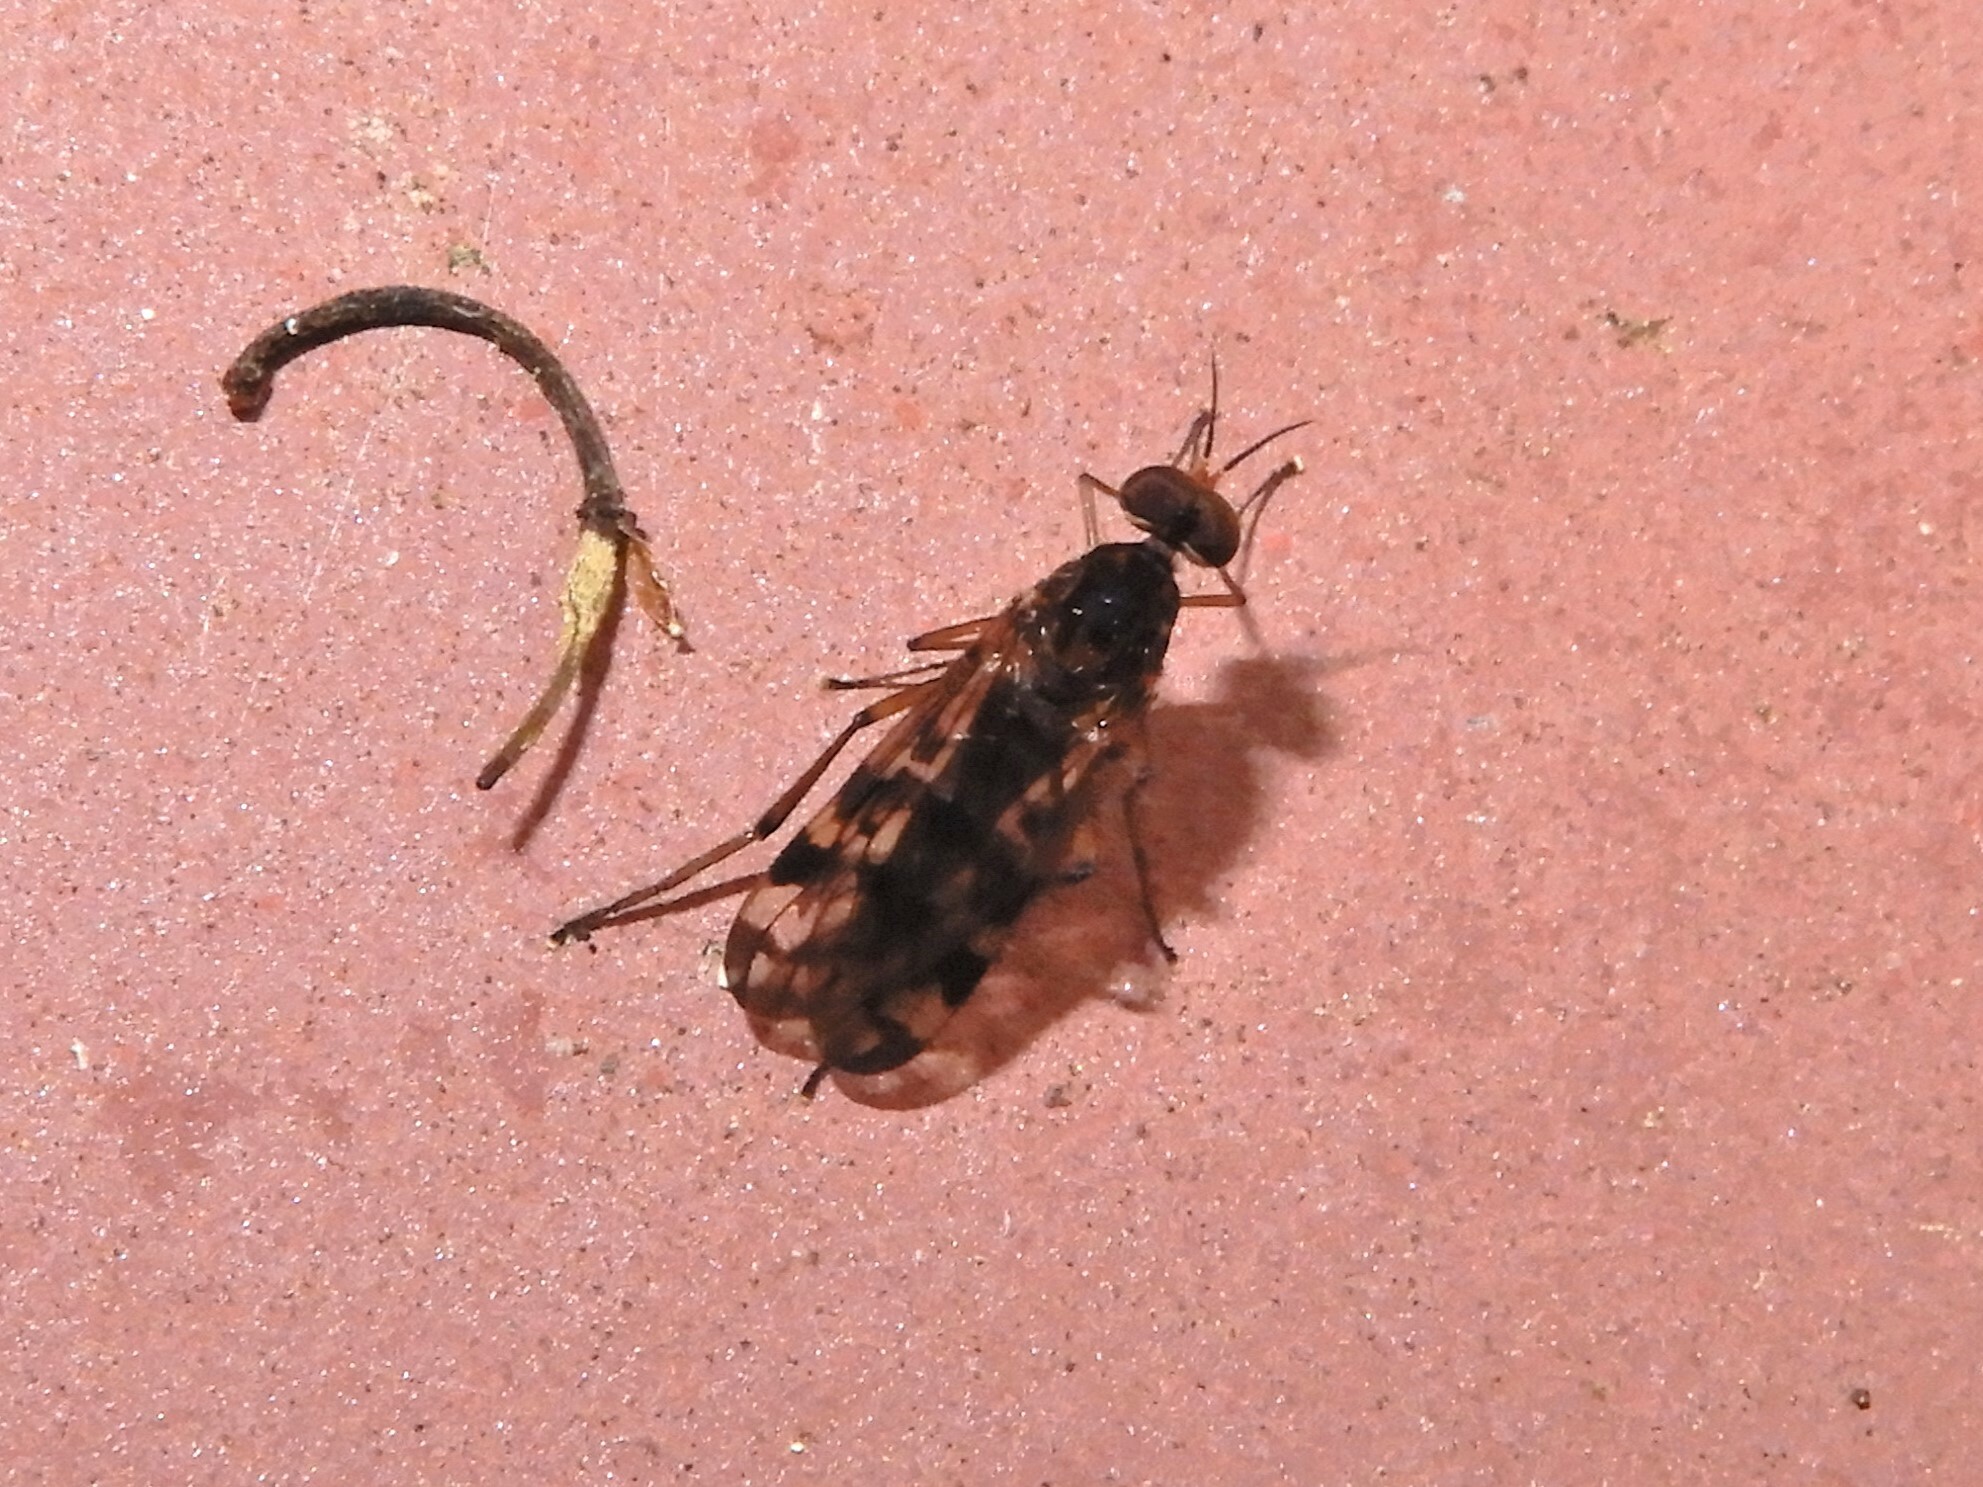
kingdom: Animalia
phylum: Arthropoda
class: Insecta
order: Diptera
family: Anisopodidae
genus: Sylvicola
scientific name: Sylvicola dubius
